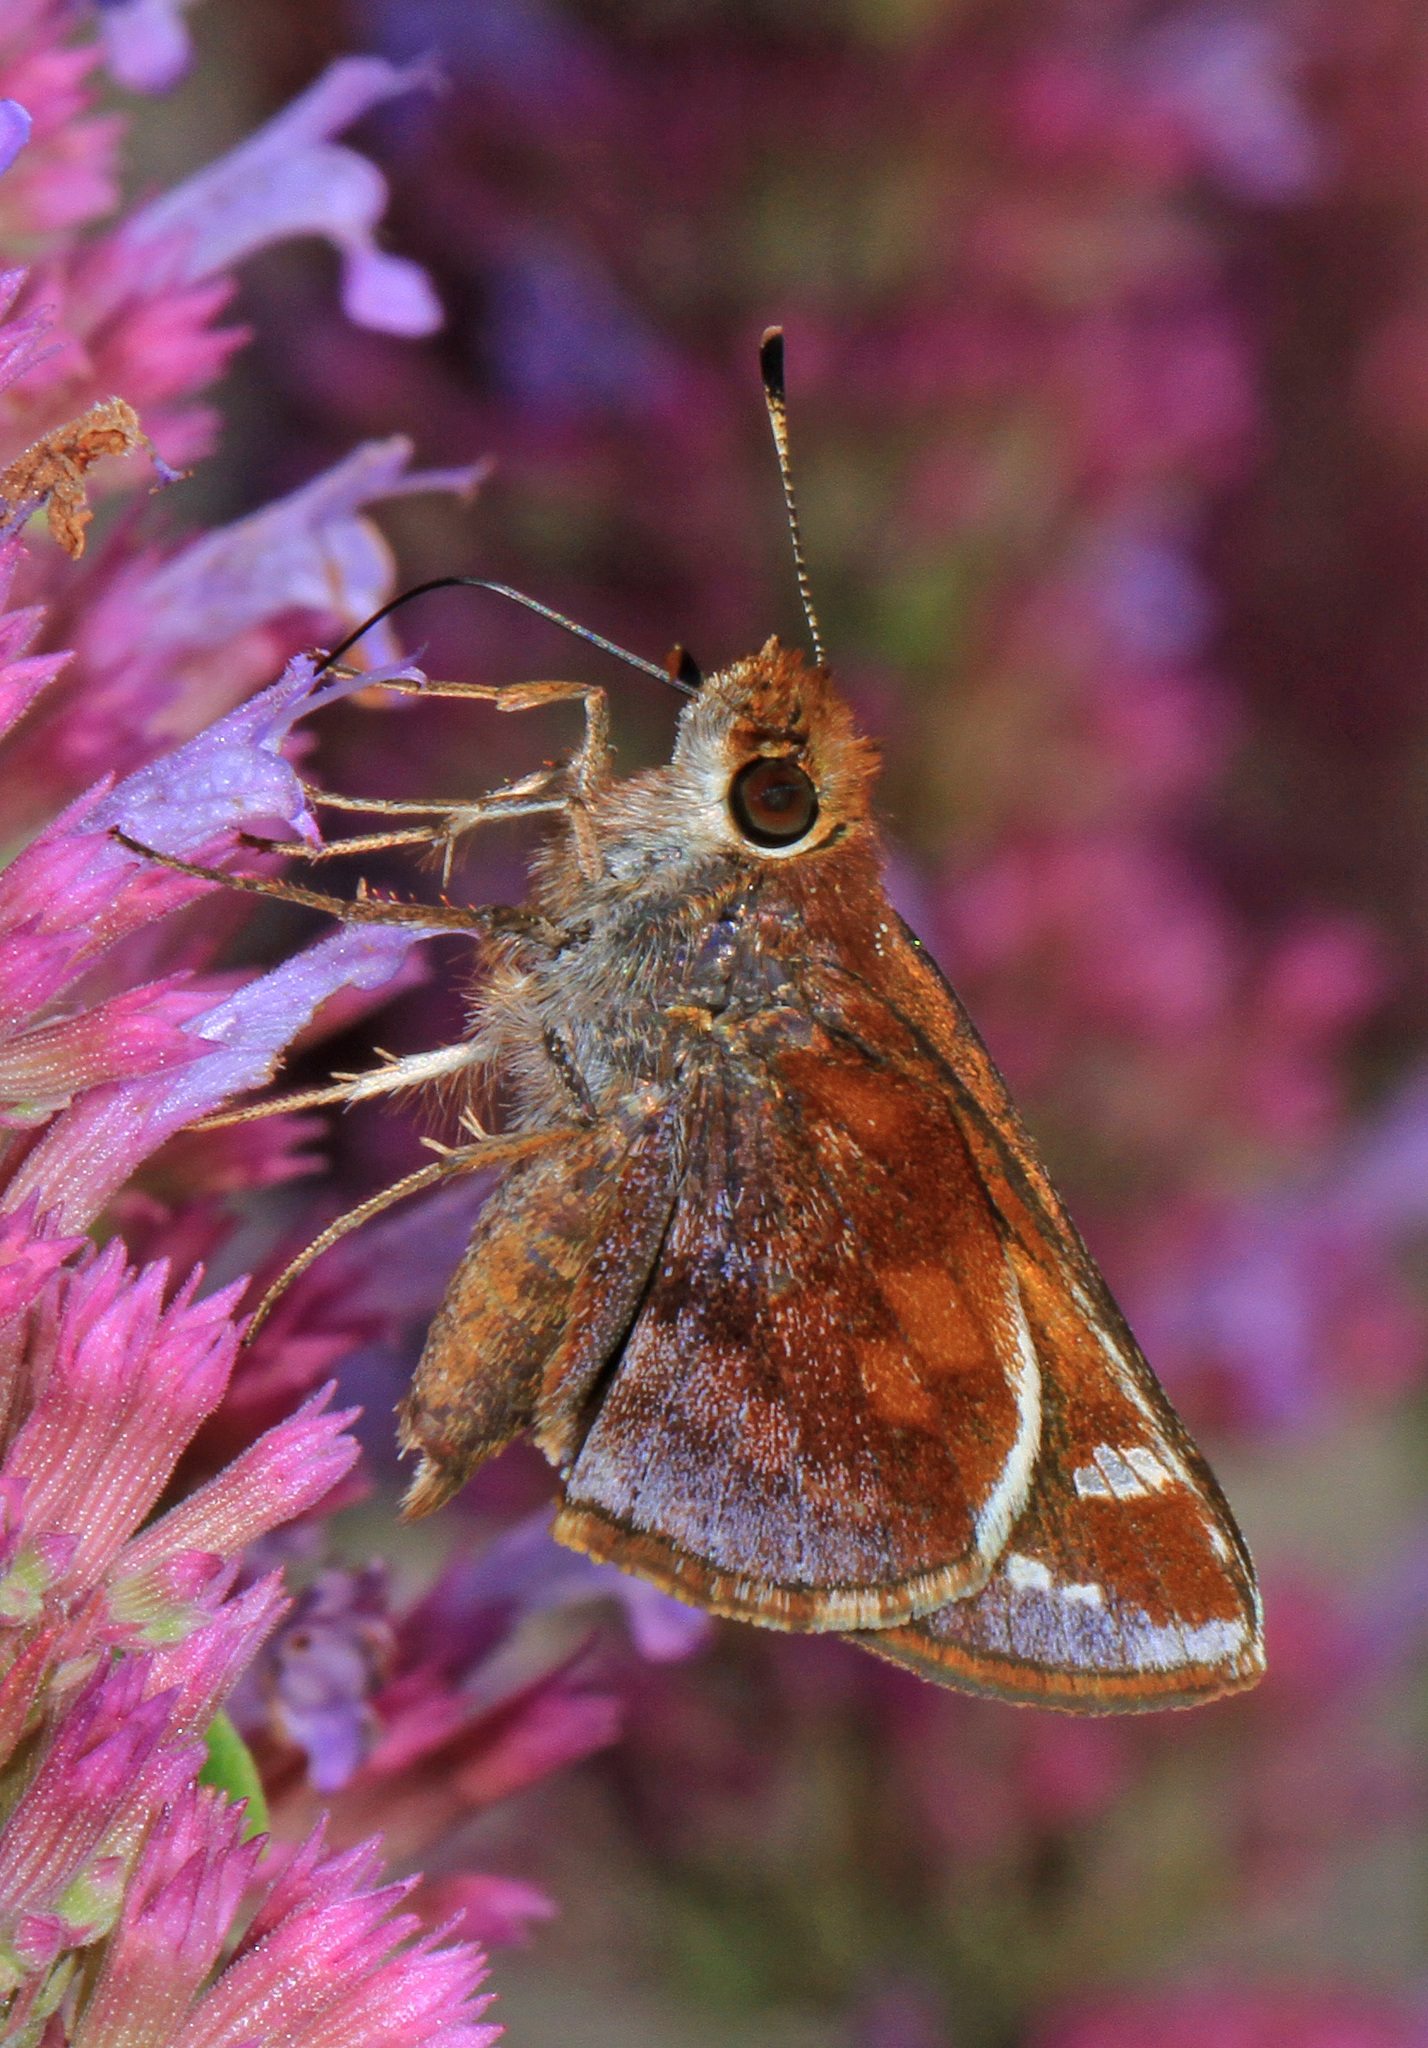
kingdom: Animalia
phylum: Arthropoda
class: Insecta
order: Lepidoptera
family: Hesperiidae
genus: Lon
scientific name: Lon zabulon
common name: Zabulon skipper
